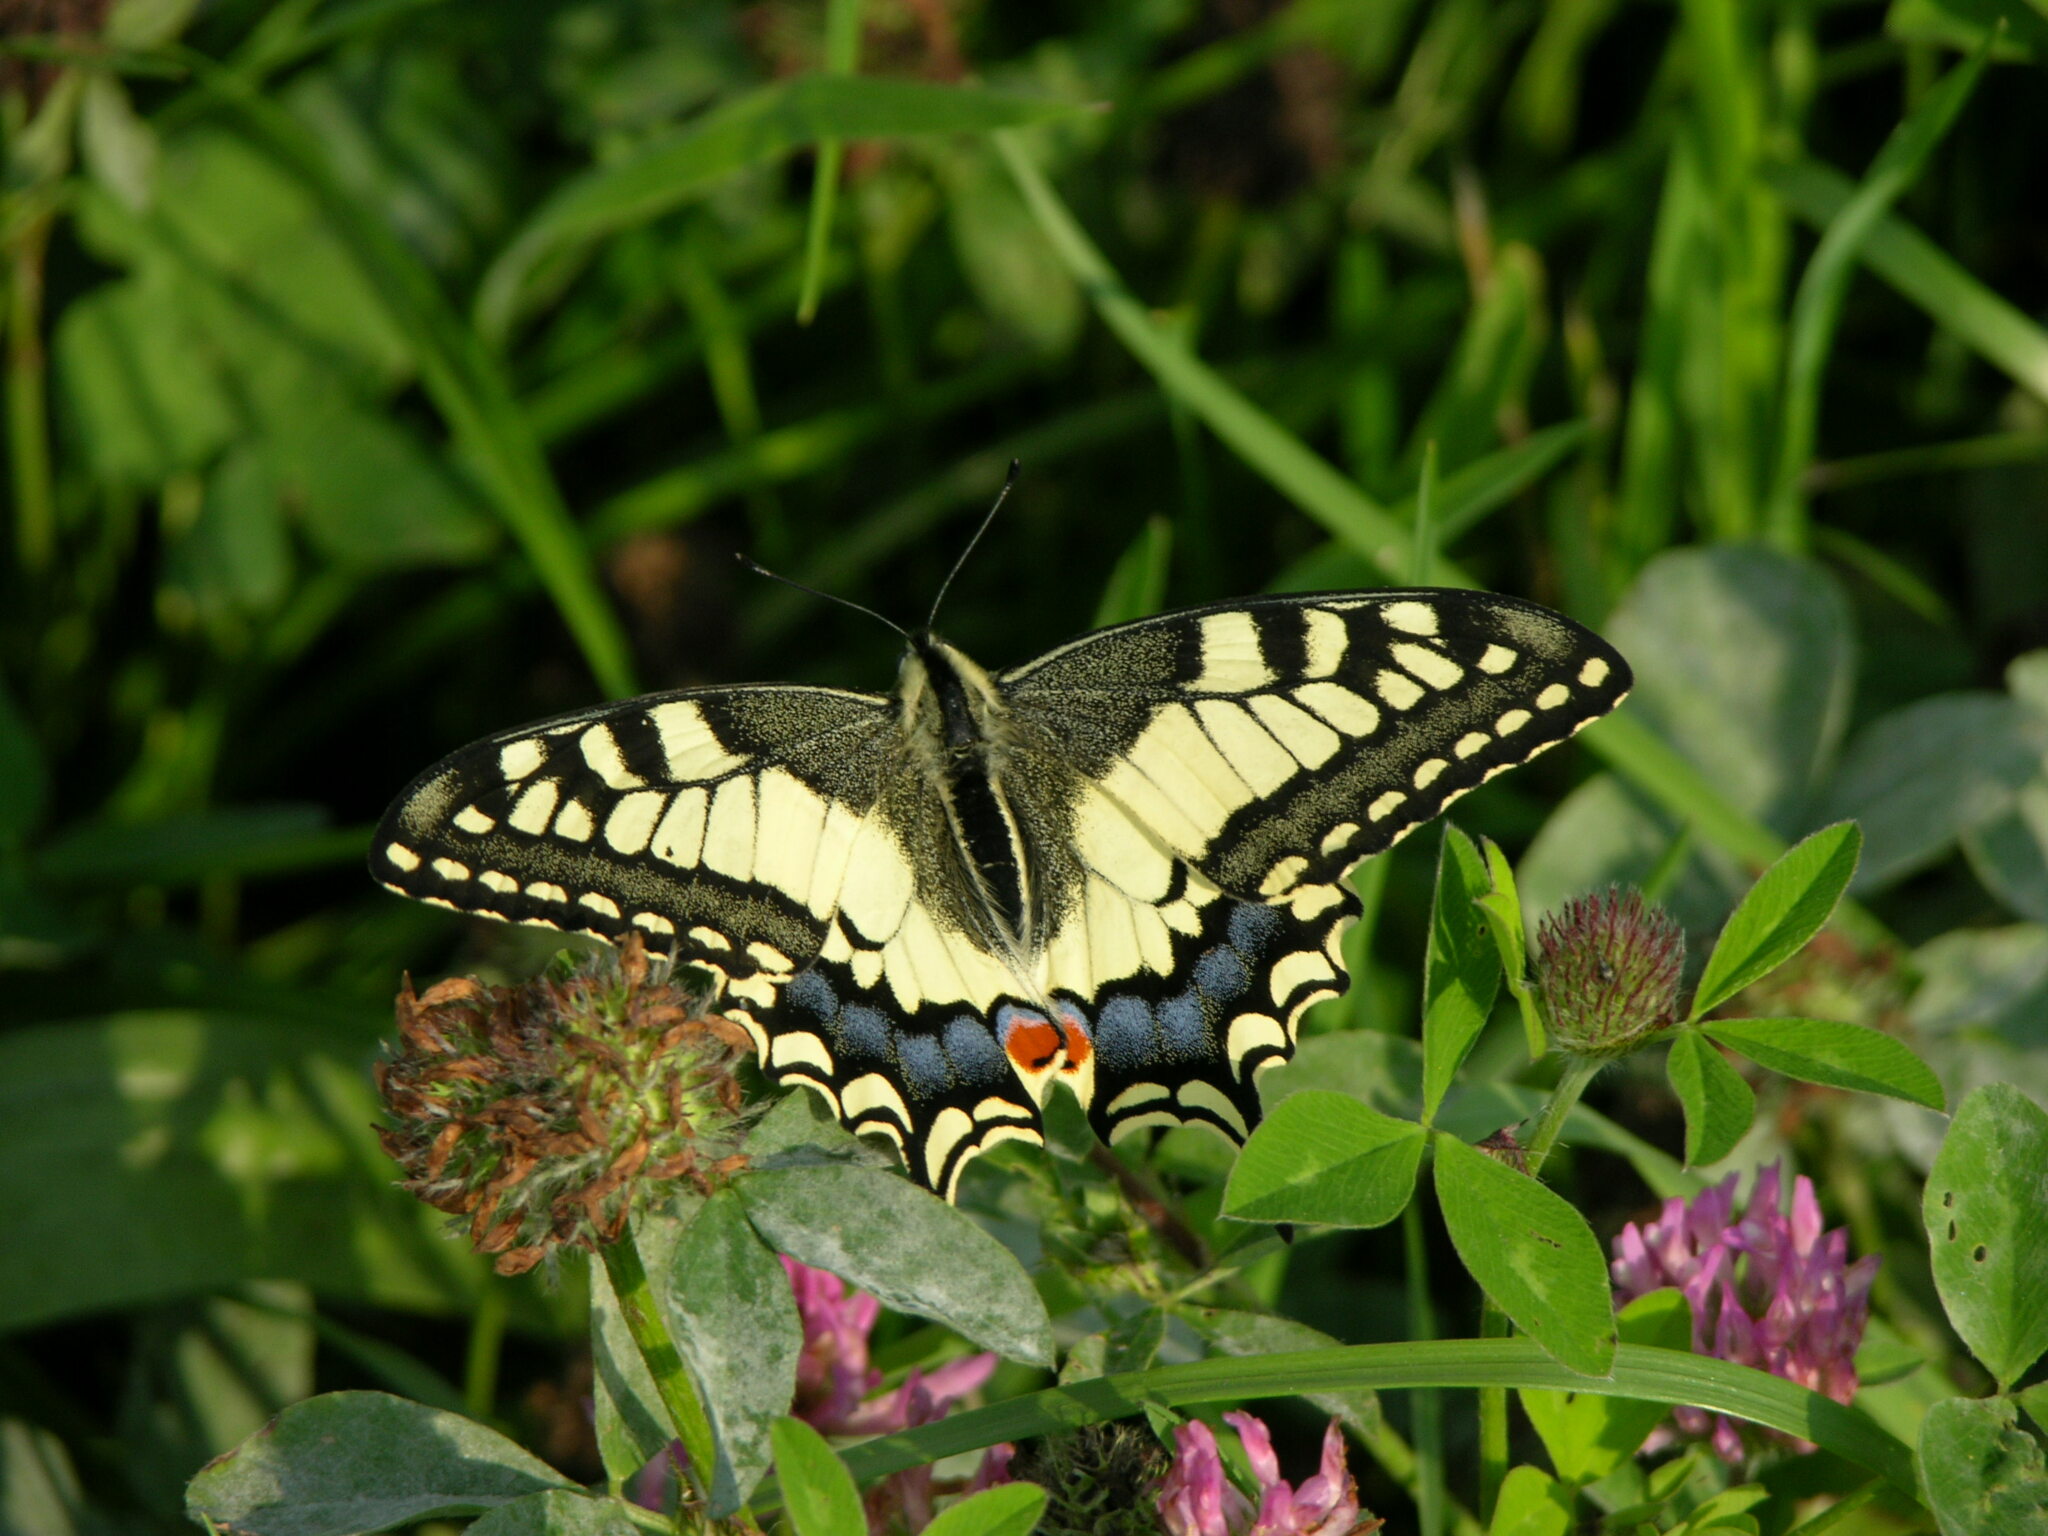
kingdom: Animalia
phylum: Arthropoda
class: Insecta
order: Lepidoptera
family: Papilionidae
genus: Papilio
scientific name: Papilio machaon
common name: Swallowtail
